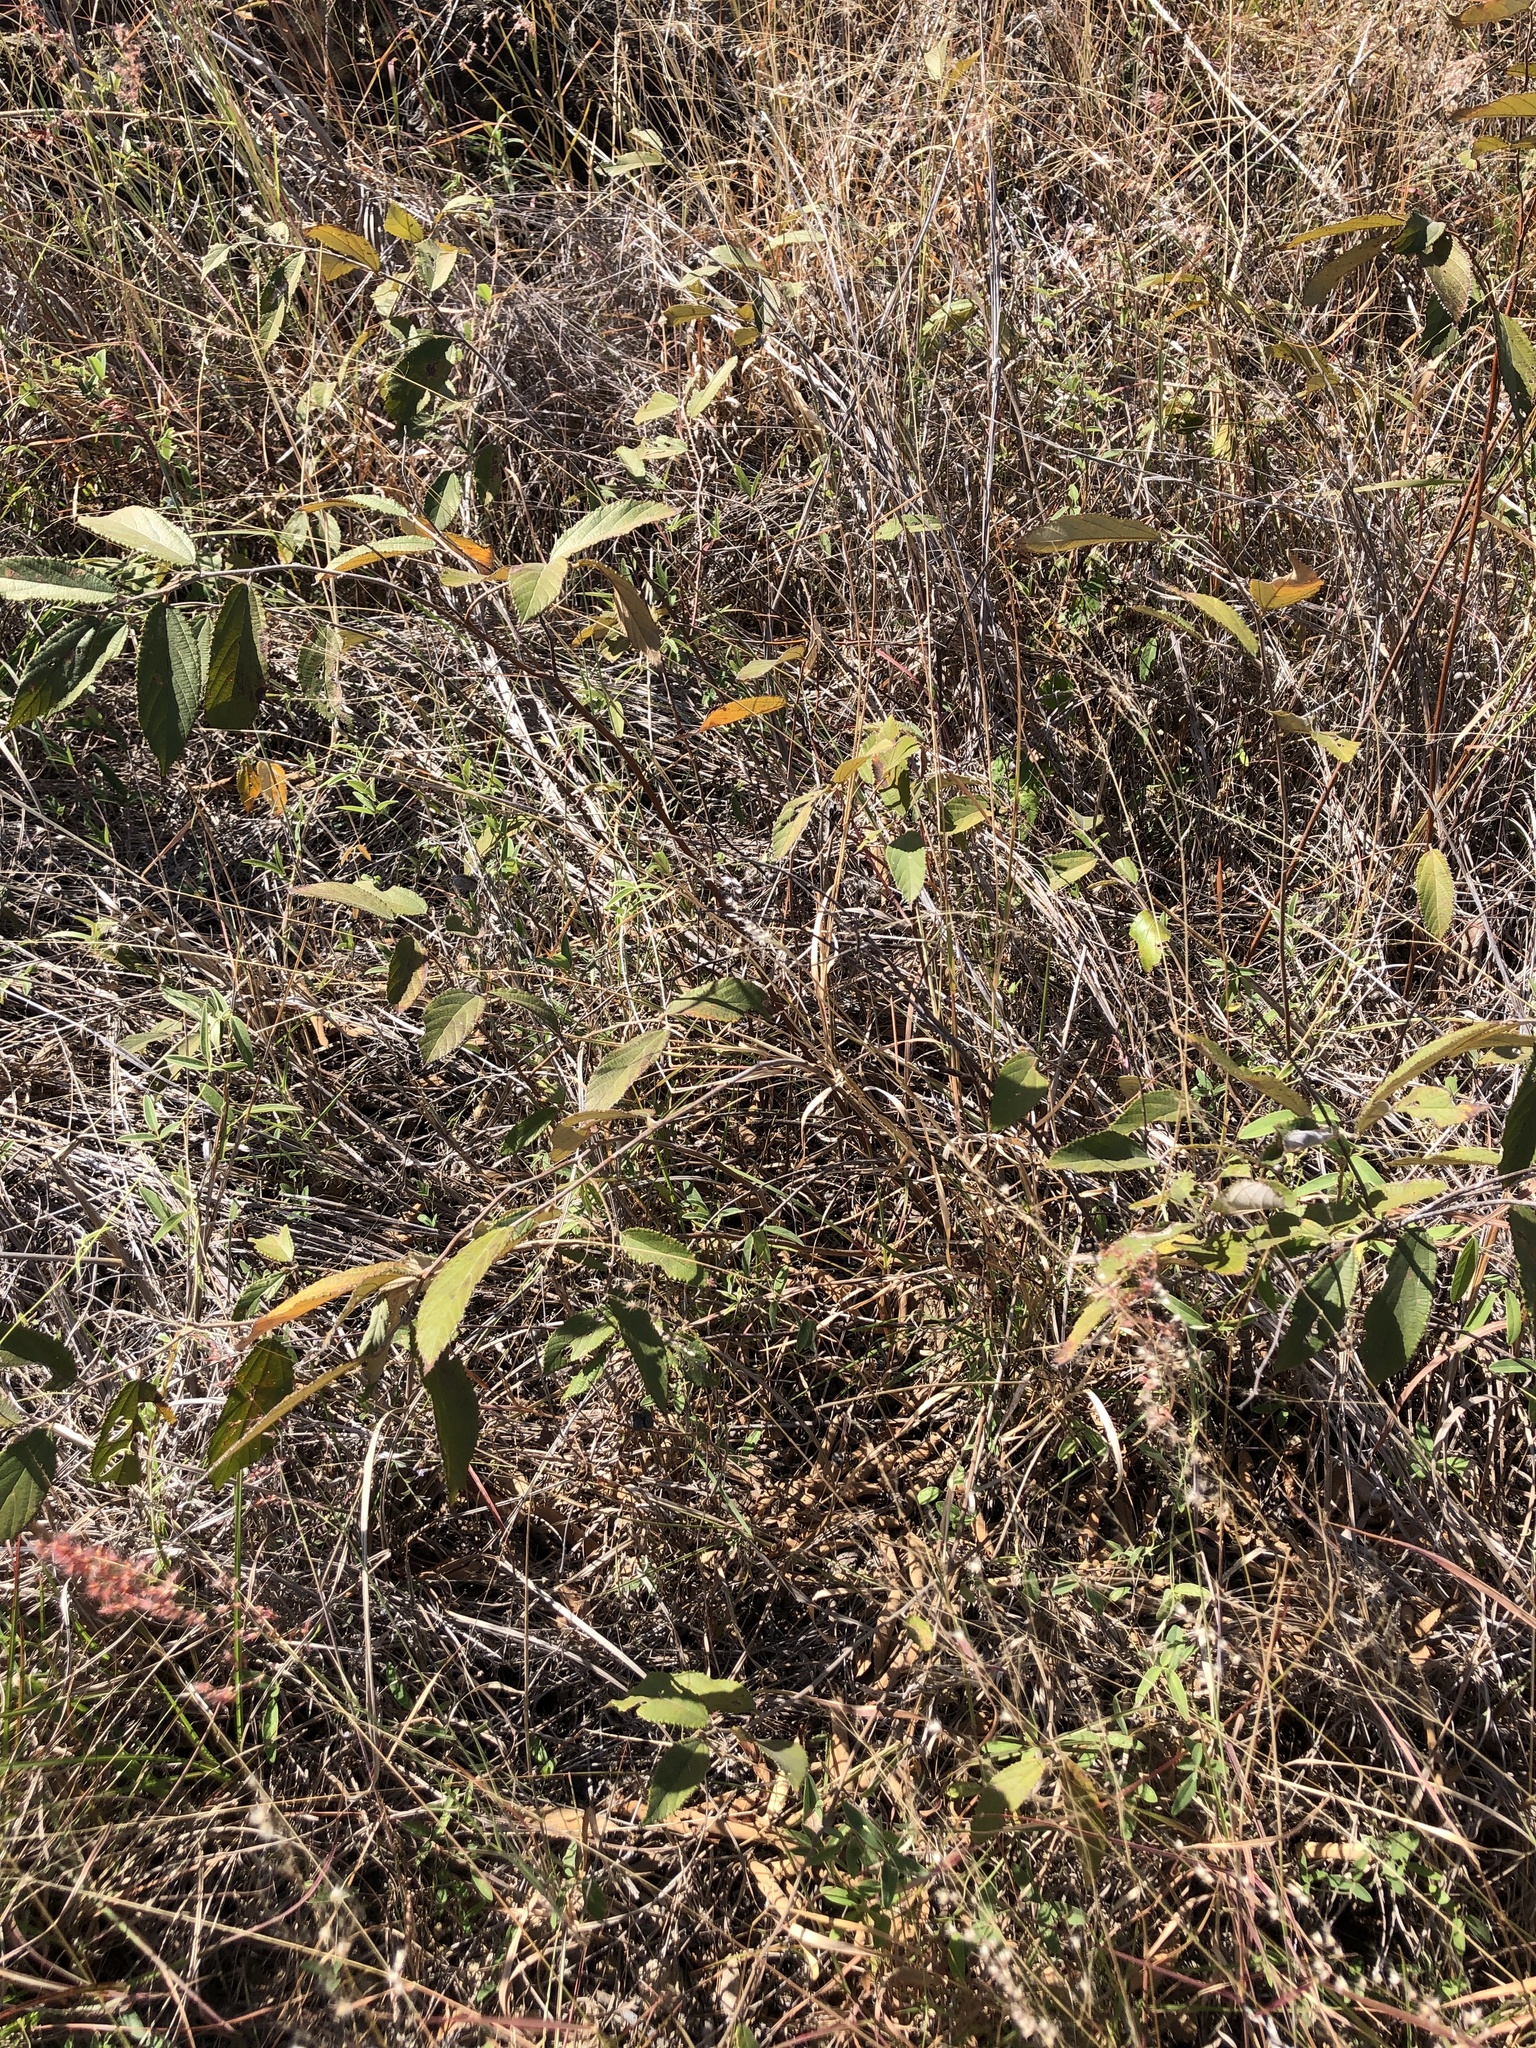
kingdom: Plantae
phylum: Tracheophyta
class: Magnoliopsida
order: Malvales
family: Malvaceae
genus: Grewia
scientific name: Grewia savannicola
